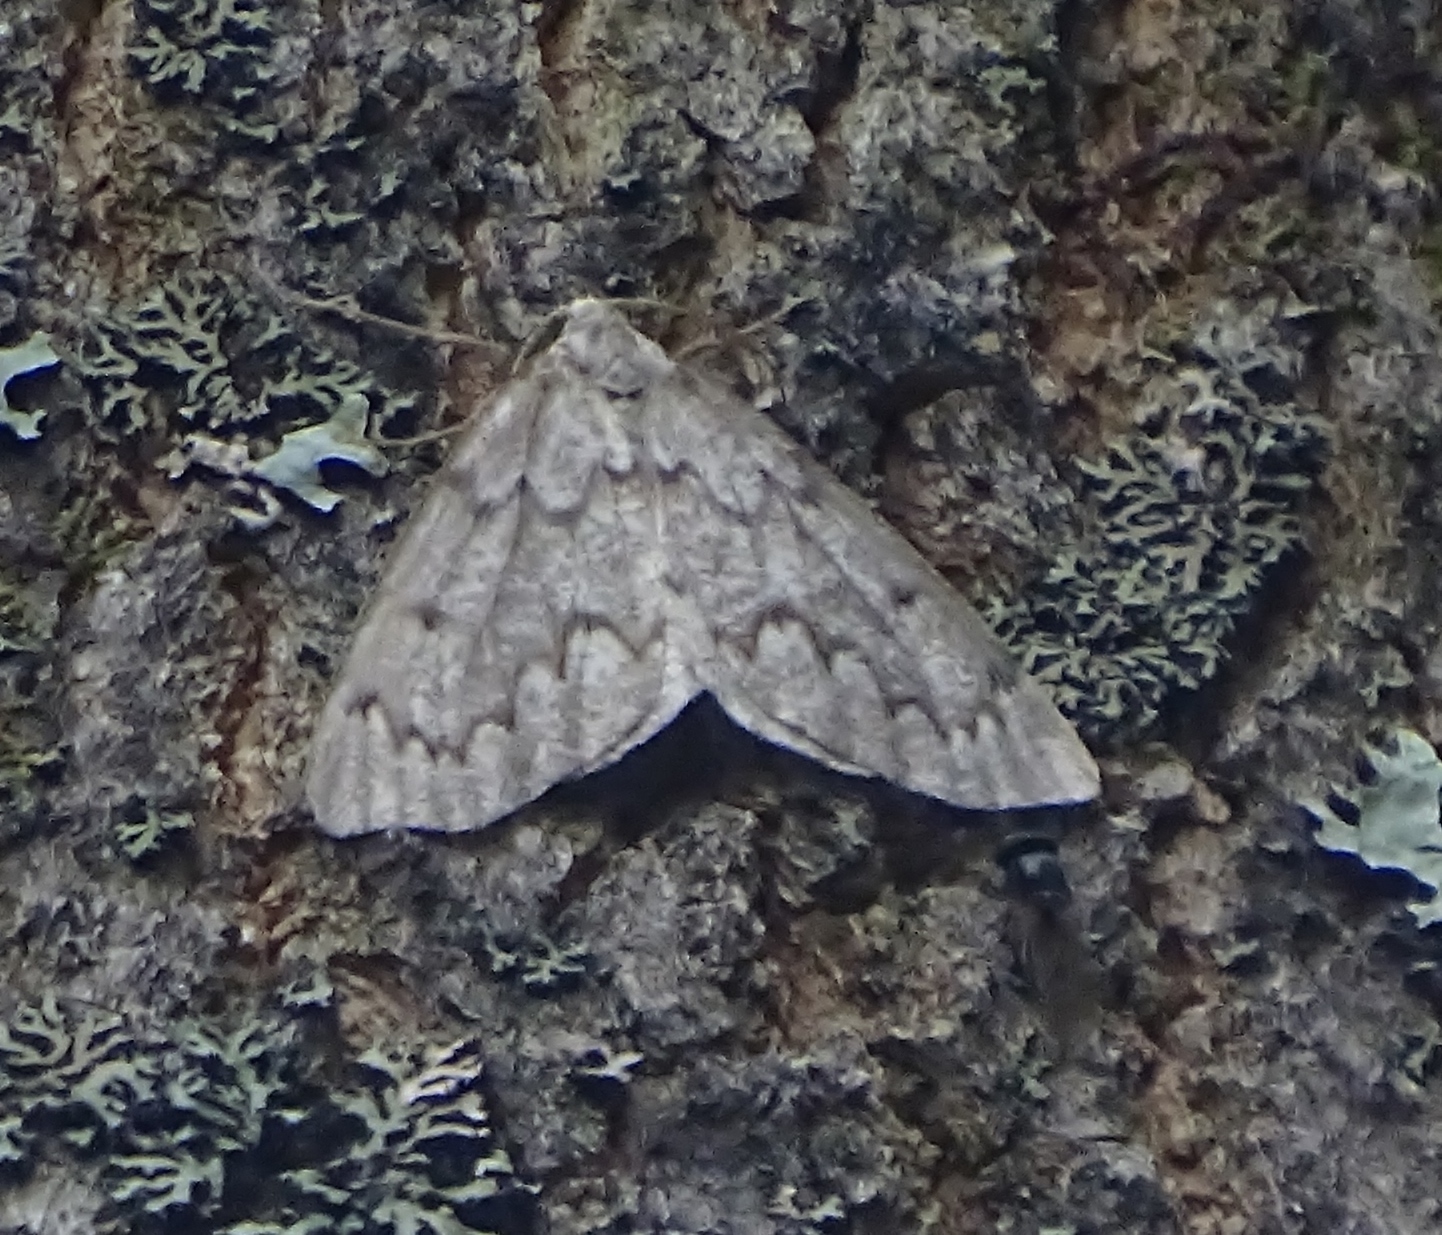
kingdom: Animalia
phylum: Arthropoda
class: Insecta
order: Lepidoptera
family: Geometridae
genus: Nepytia
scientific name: Nepytia canosaria
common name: False hemlock looper
